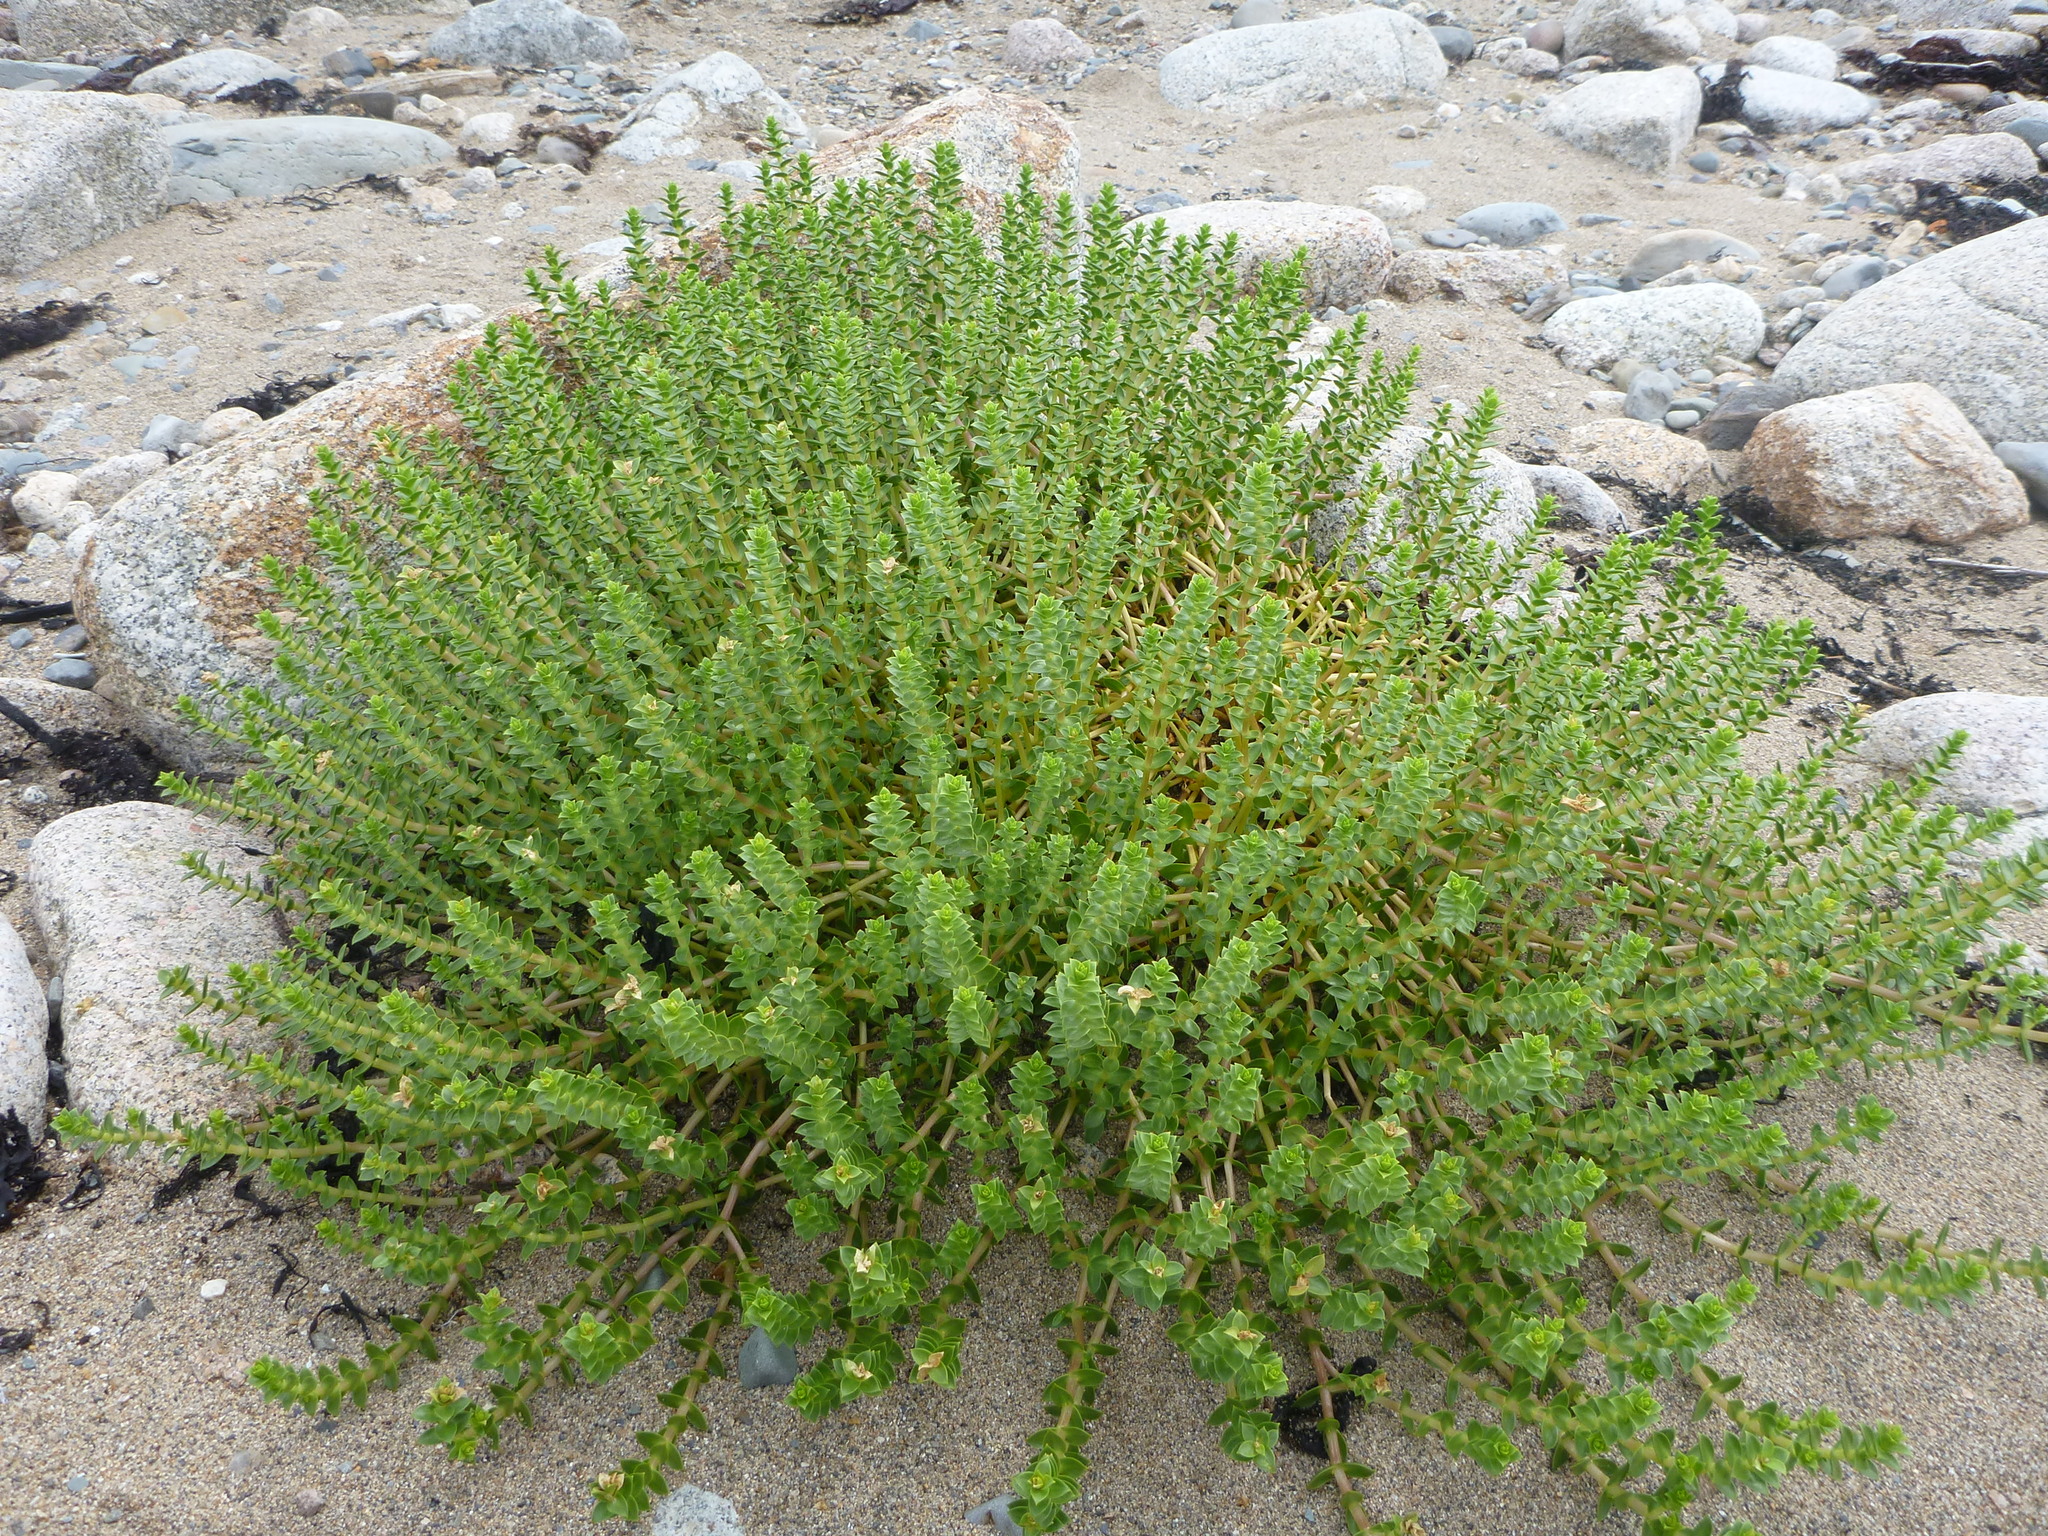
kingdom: Plantae
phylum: Tracheophyta
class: Magnoliopsida
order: Caryophyllales
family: Caryophyllaceae
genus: Honckenya
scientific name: Honckenya peploides
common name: Sea sandwort
